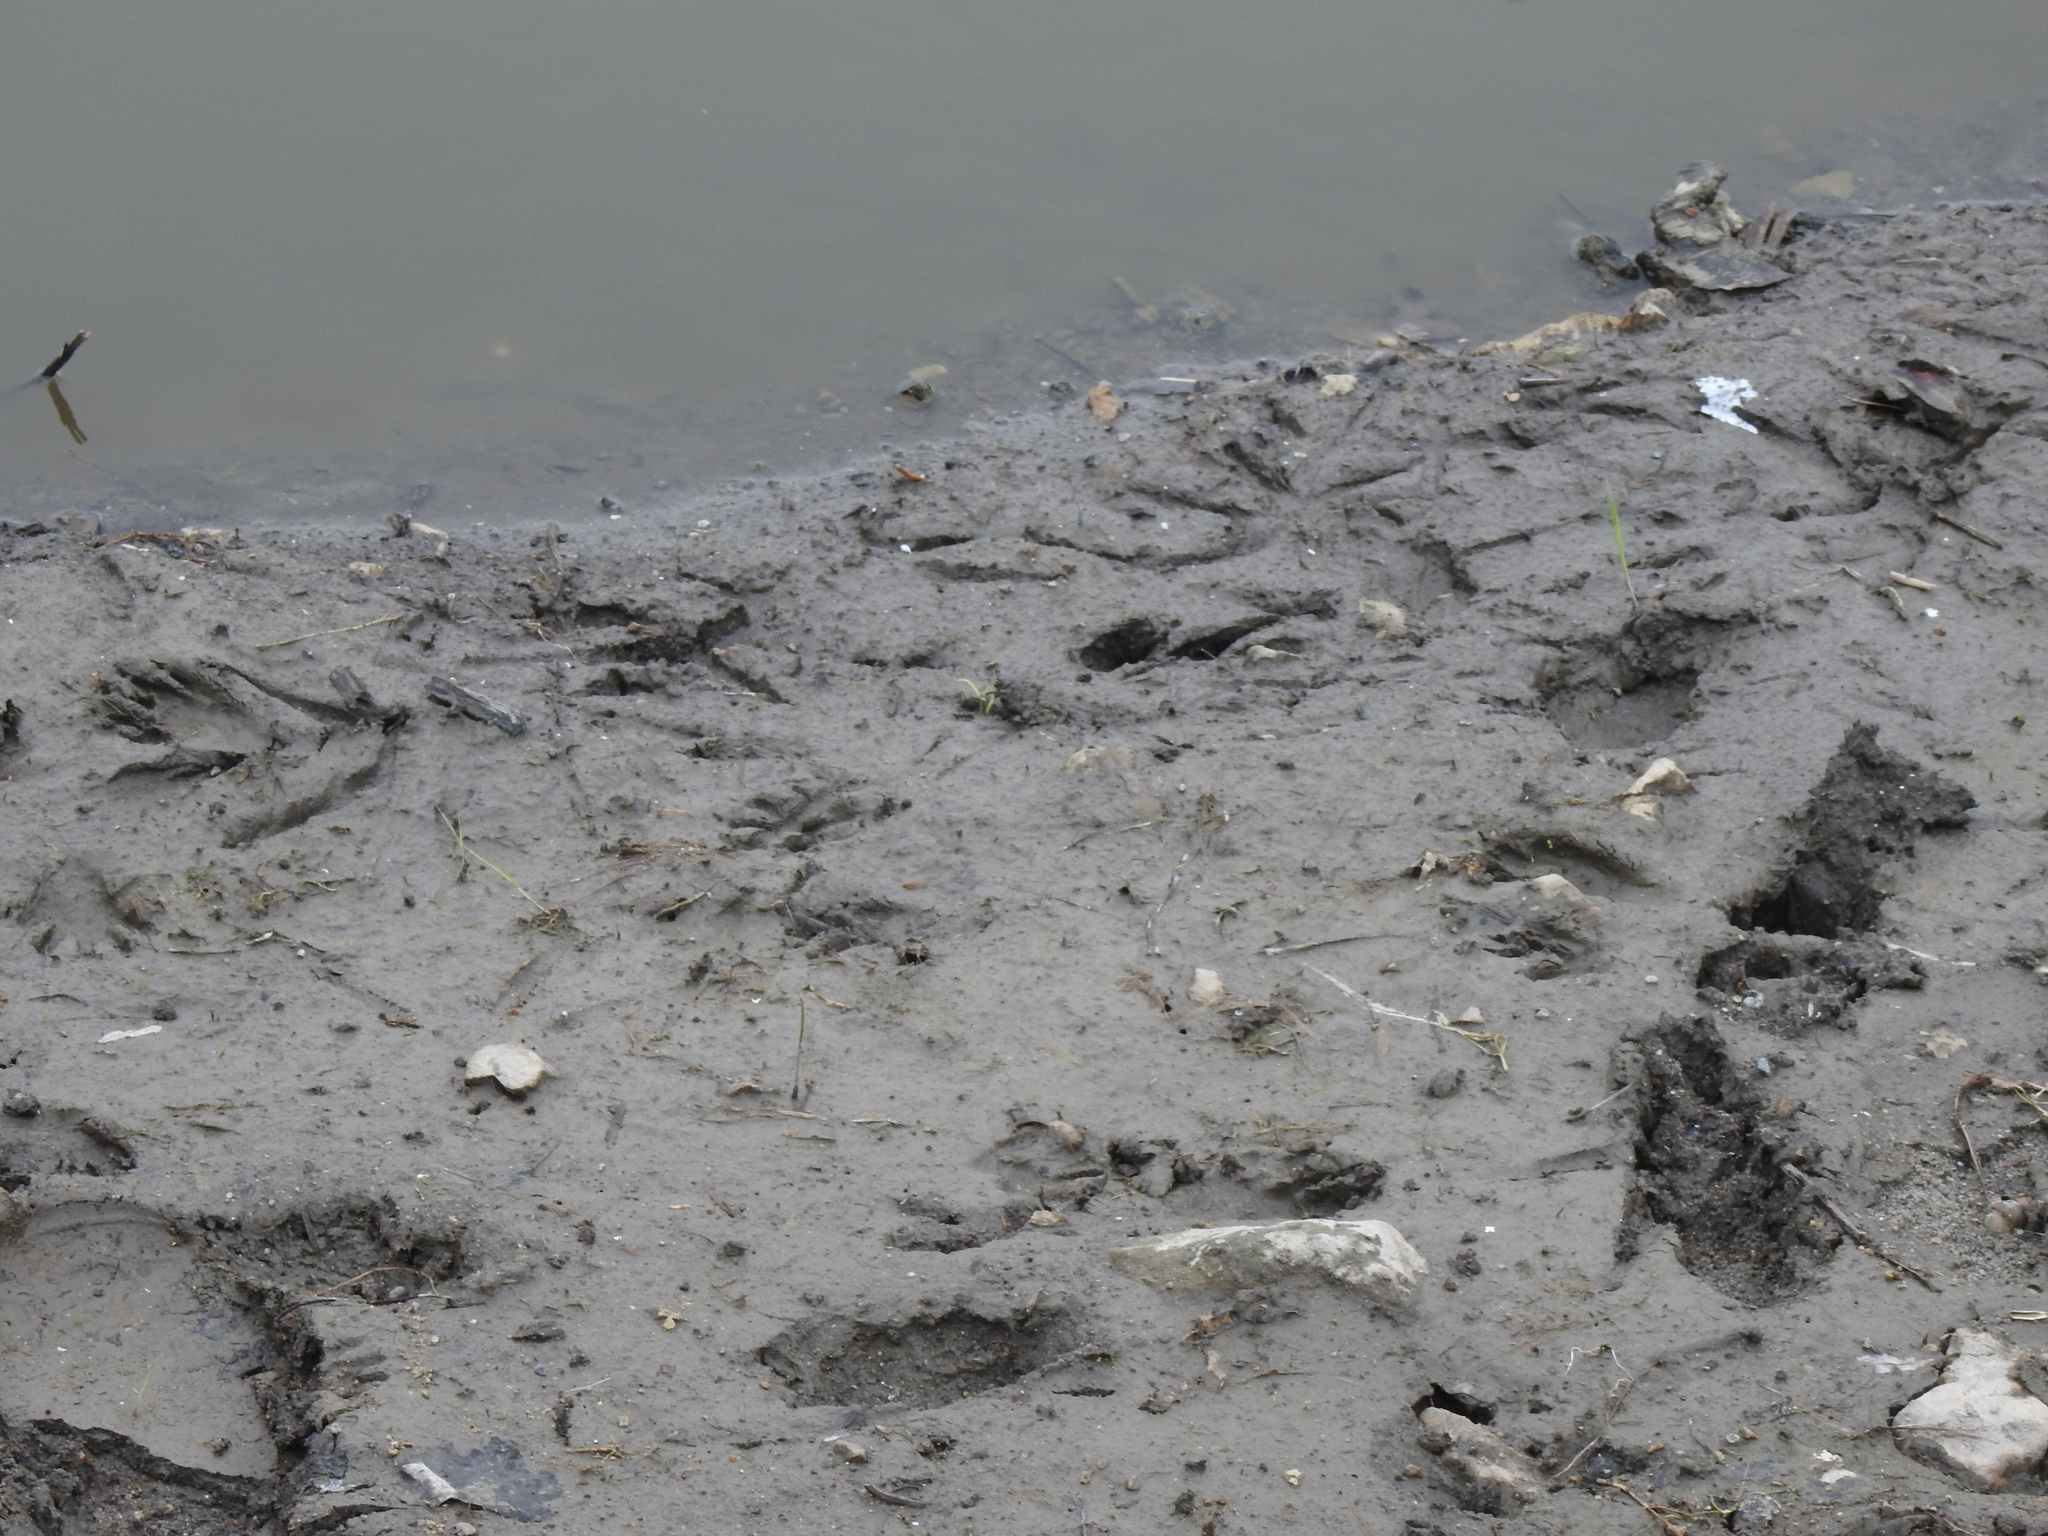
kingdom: Animalia
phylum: Chordata
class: Mammalia
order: Carnivora
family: Procyonidae
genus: Procyon
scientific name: Procyon lotor
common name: Raccoon
